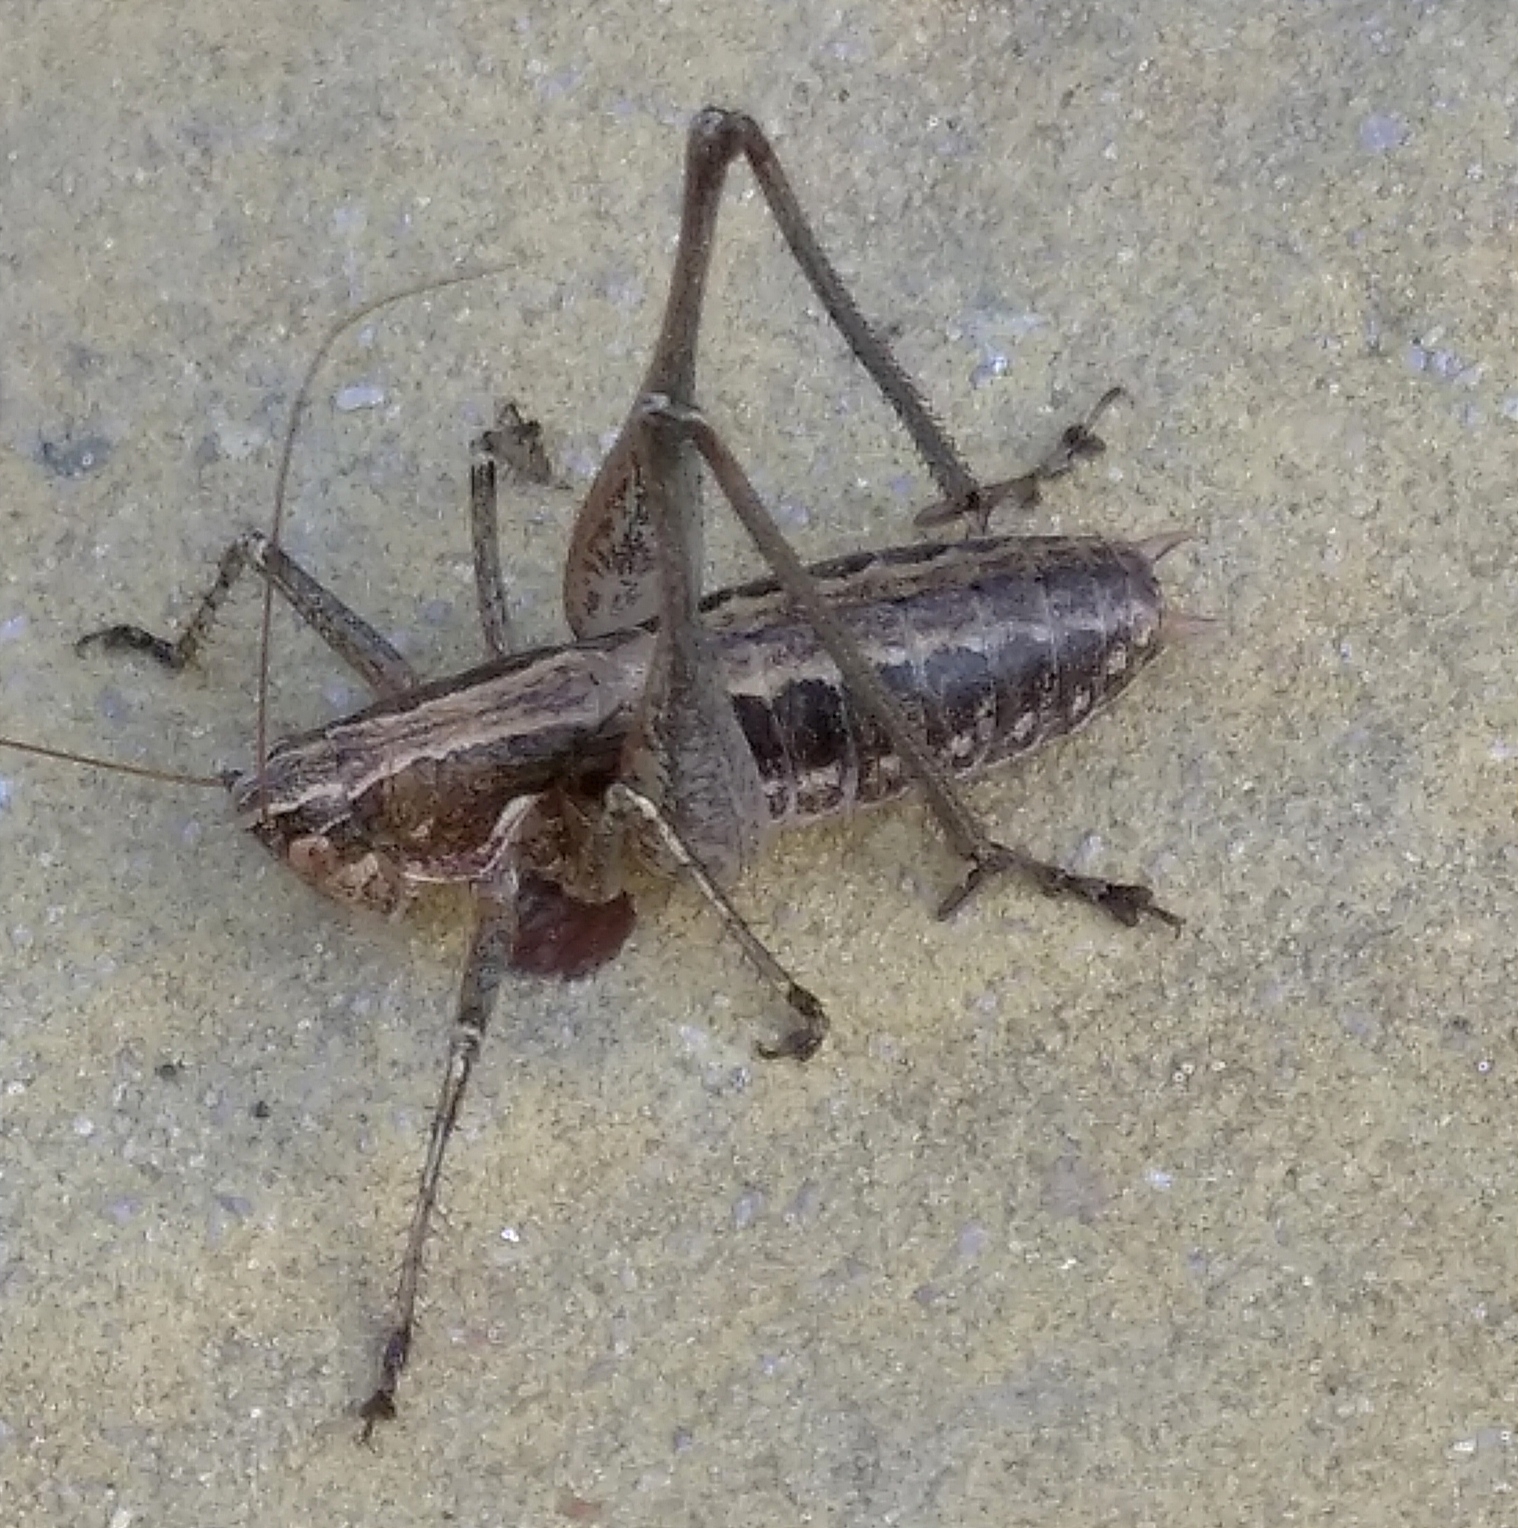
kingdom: Animalia
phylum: Arthropoda
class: Insecta
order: Orthoptera
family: Tettigoniidae
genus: Rhacocleis
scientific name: Rhacocleis germanica
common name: Mediterranean bush-cricket
